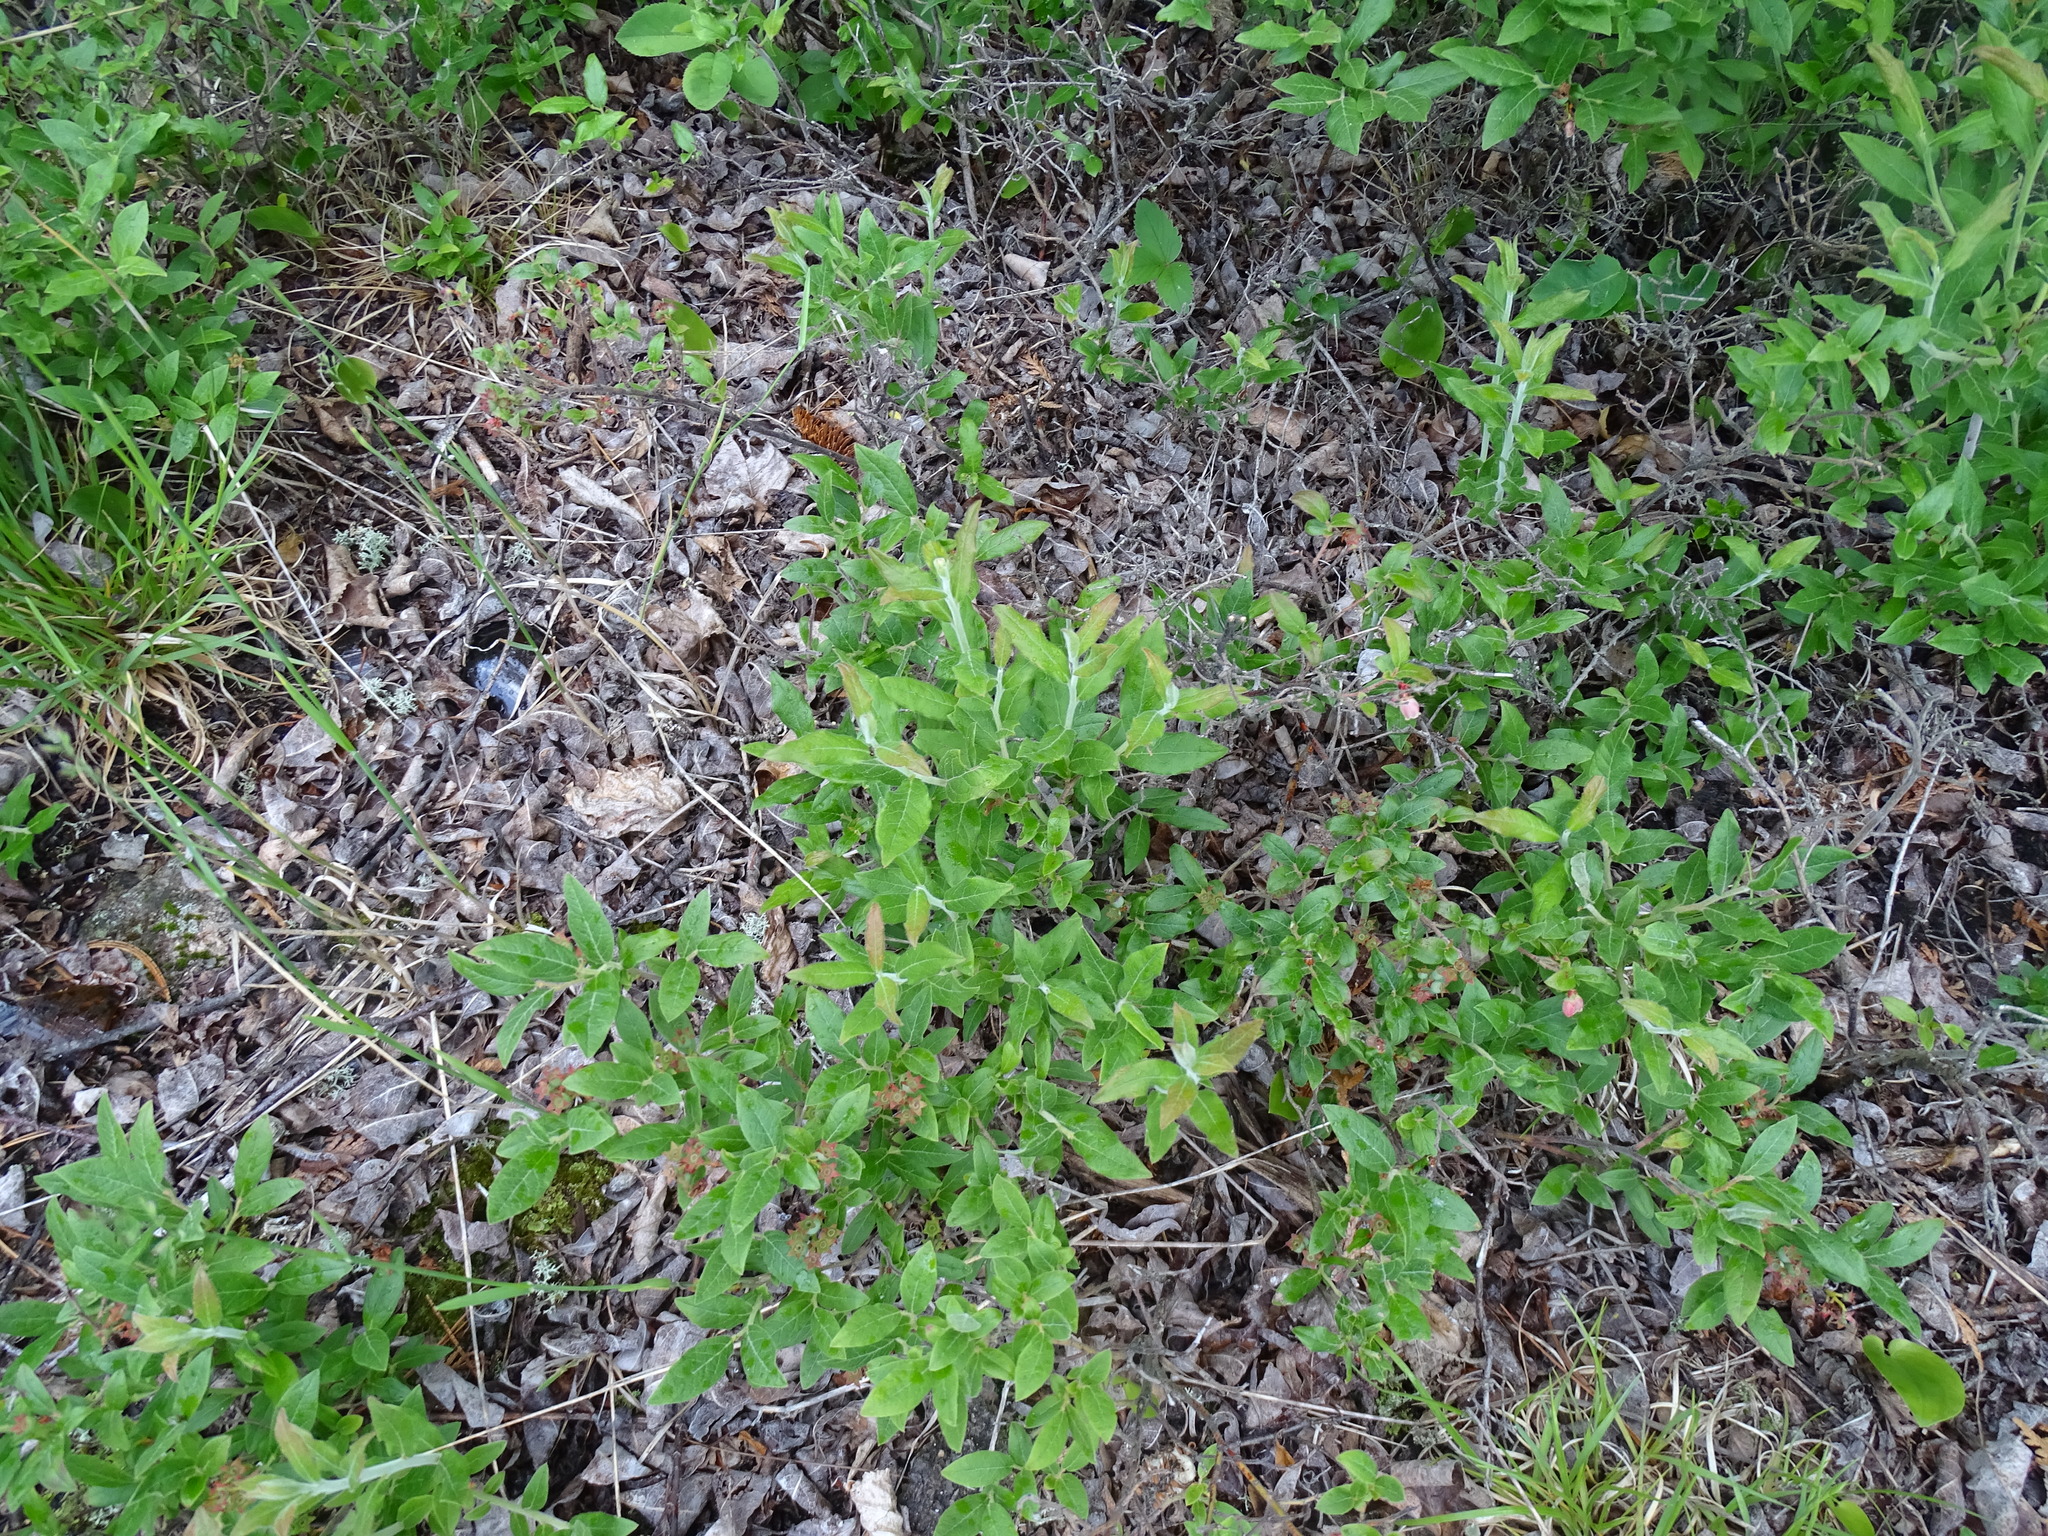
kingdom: Plantae
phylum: Tracheophyta
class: Magnoliopsida
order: Ericales
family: Ericaceae
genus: Vaccinium
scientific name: Vaccinium myrtilloides
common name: Canada blueberry
